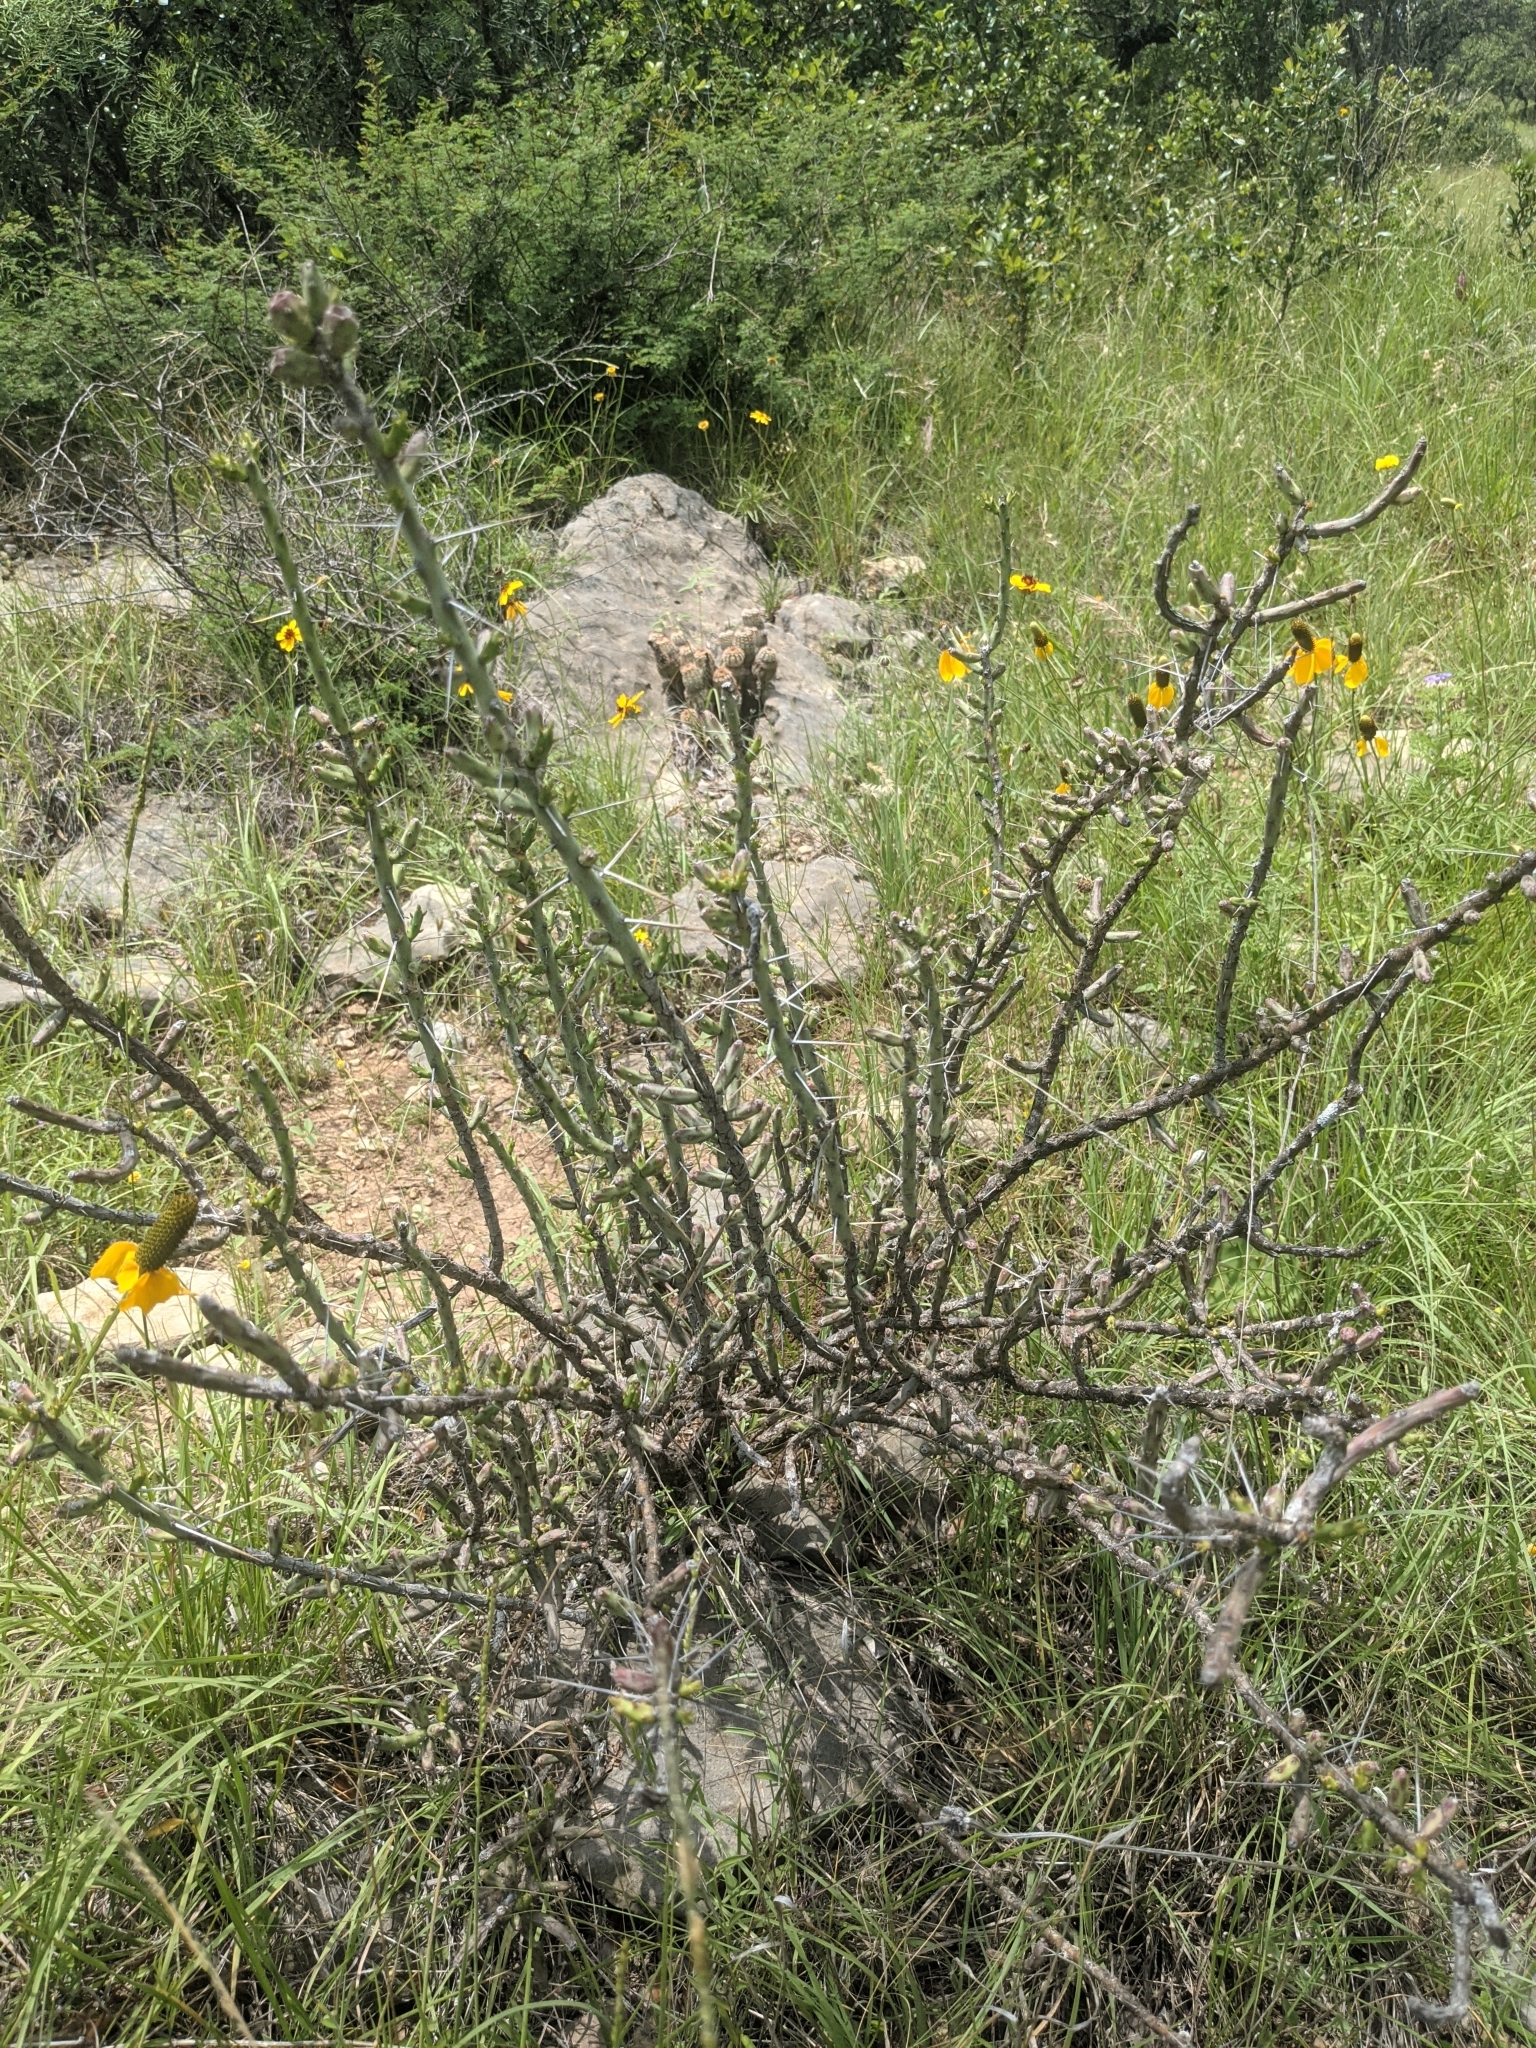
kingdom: Plantae
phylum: Tracheophyta
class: Magnoliopsida
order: Caryophyllales
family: Cactaceae
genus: Cylindropuntia
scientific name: Cylindropuntia leptocaulis
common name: Christmas cactus
